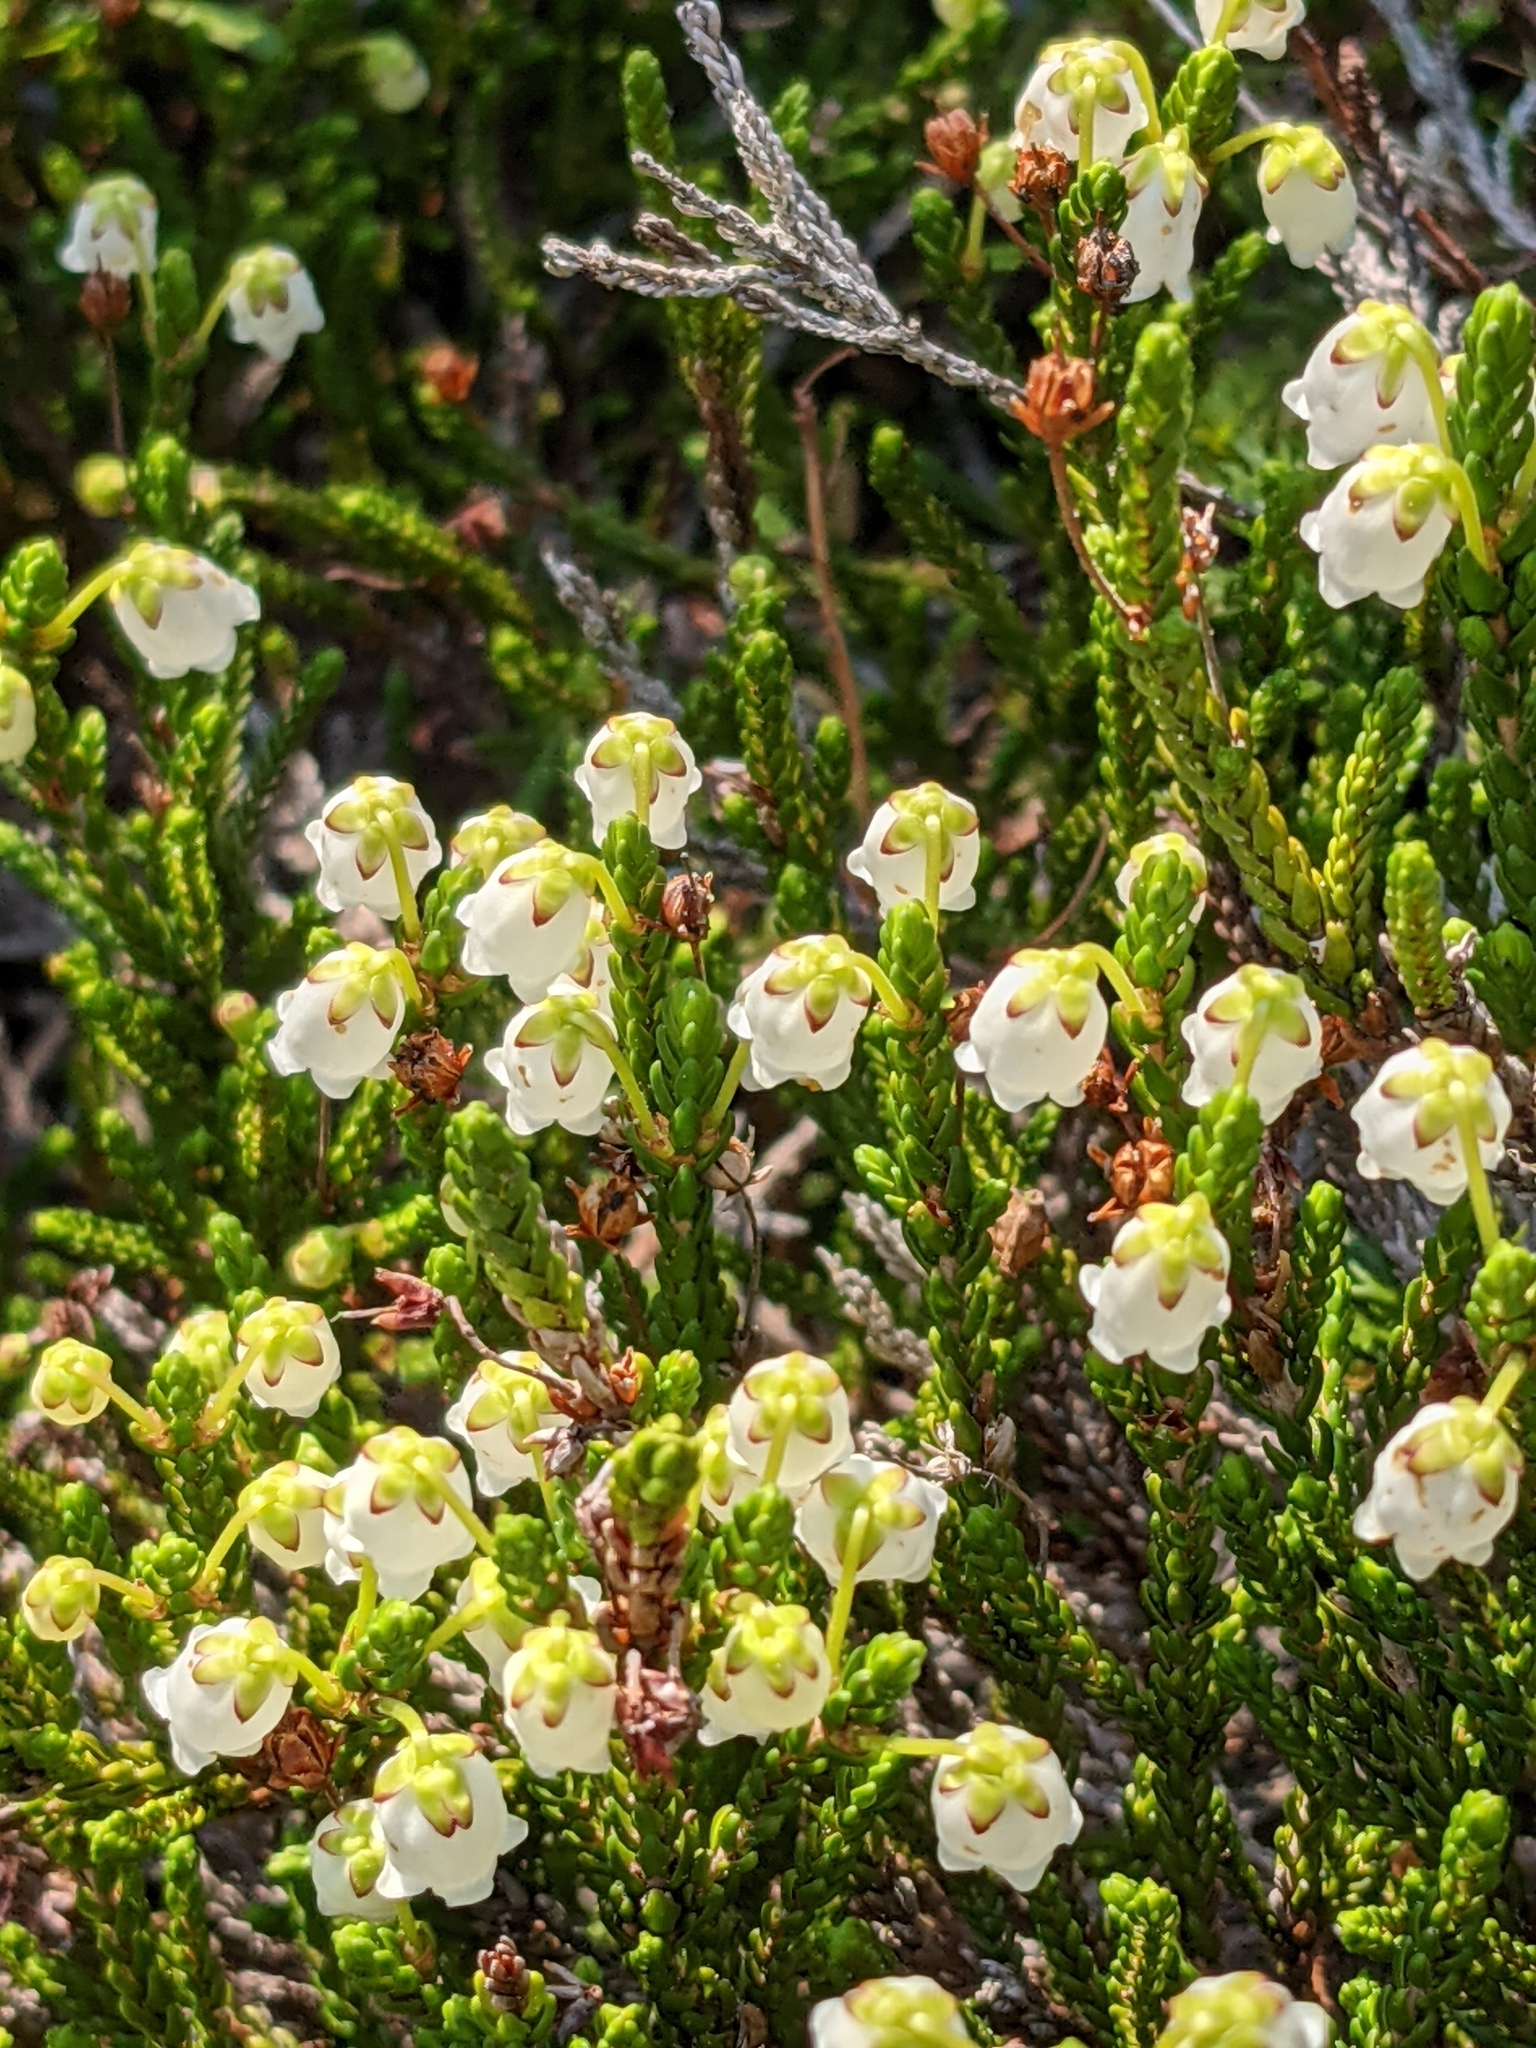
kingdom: Plantae
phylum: Tracheophyta
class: Magnoliopsida
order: Ericales
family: Ericaceae
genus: Cassiope
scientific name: Cassiope mertensiana
